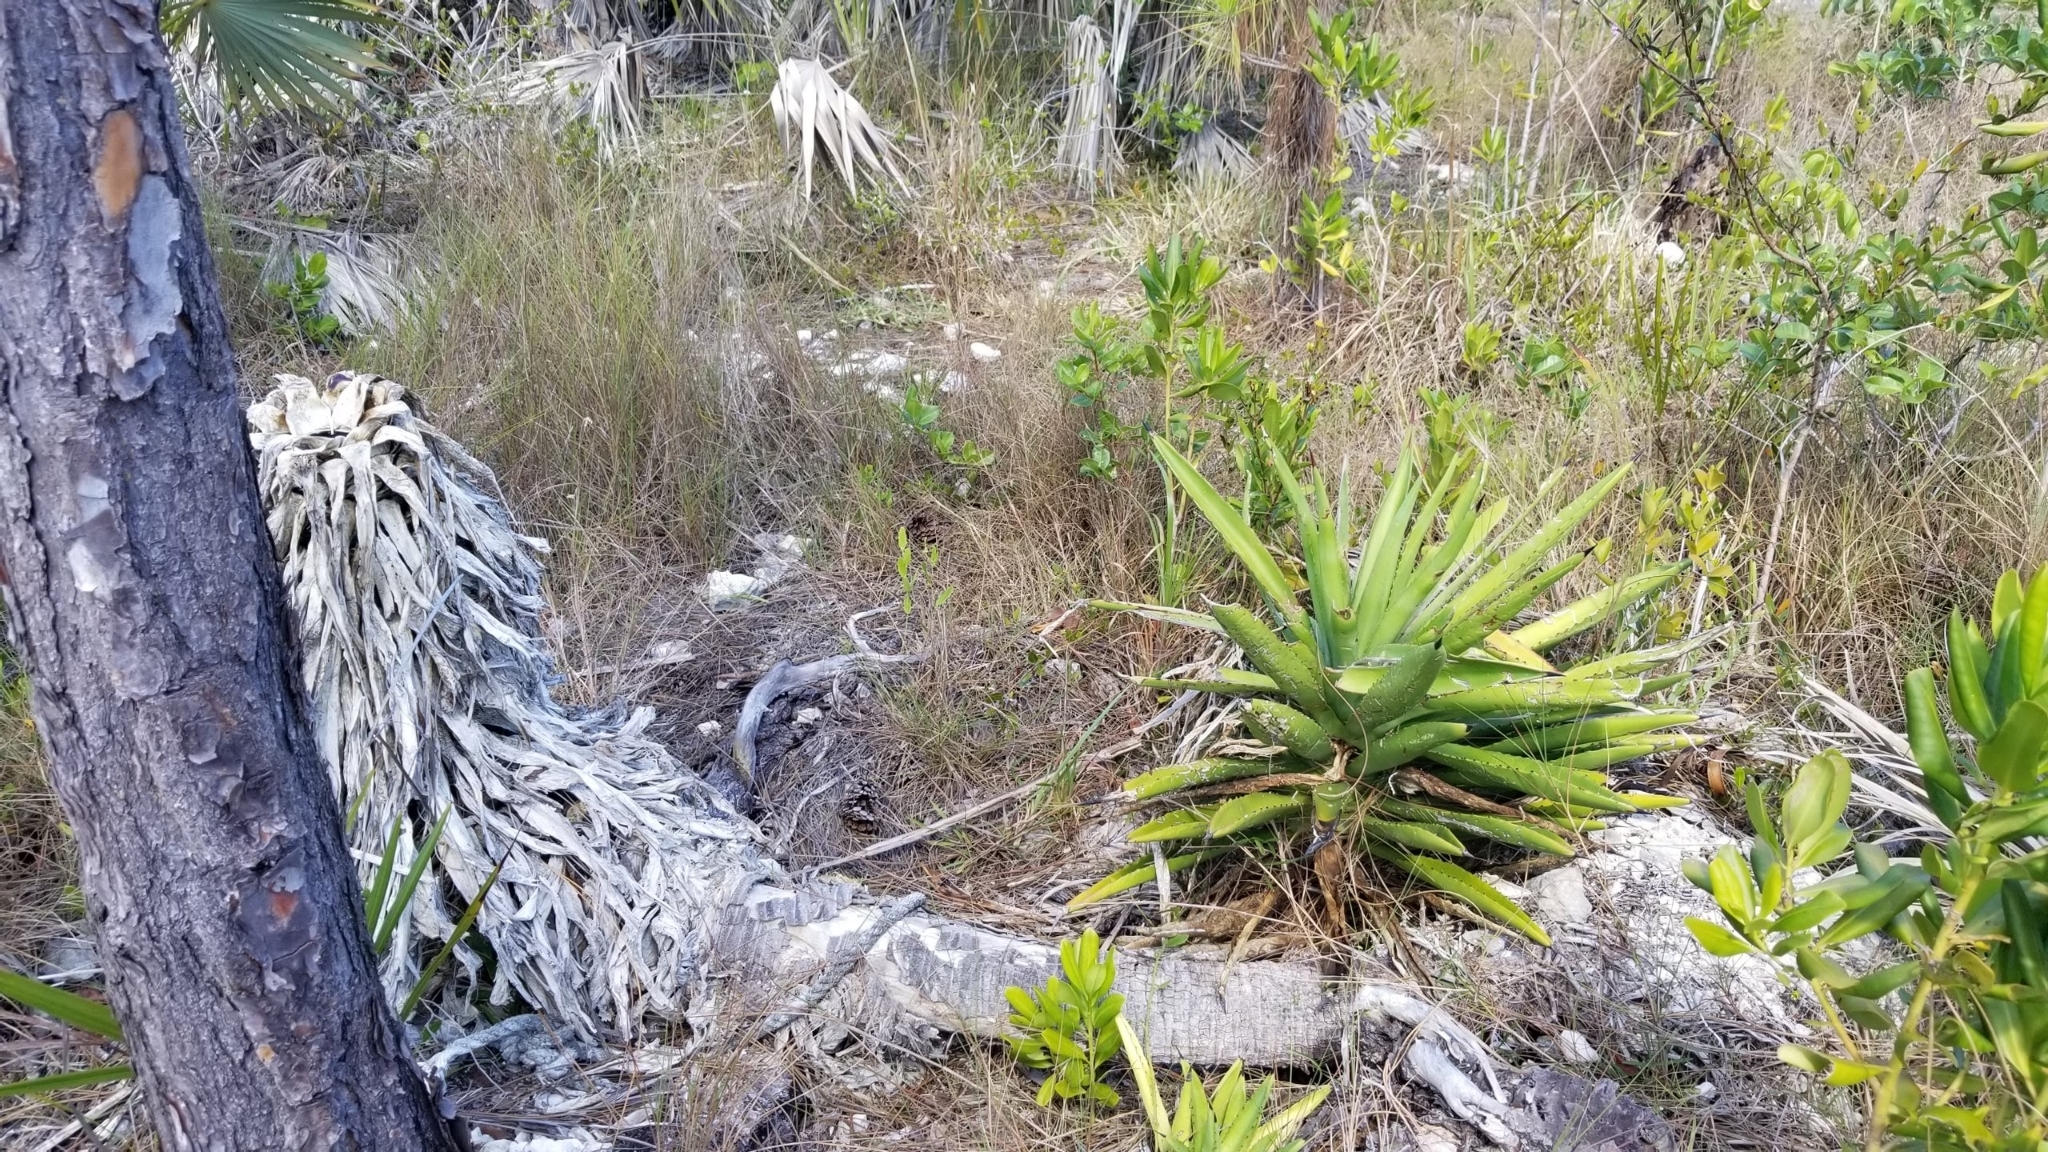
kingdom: Plantae
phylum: Tracheophyta
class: Liliopsida
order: Asparagales
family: Asparagaceae
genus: Agave
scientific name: Agave decipiens
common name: False sisal
